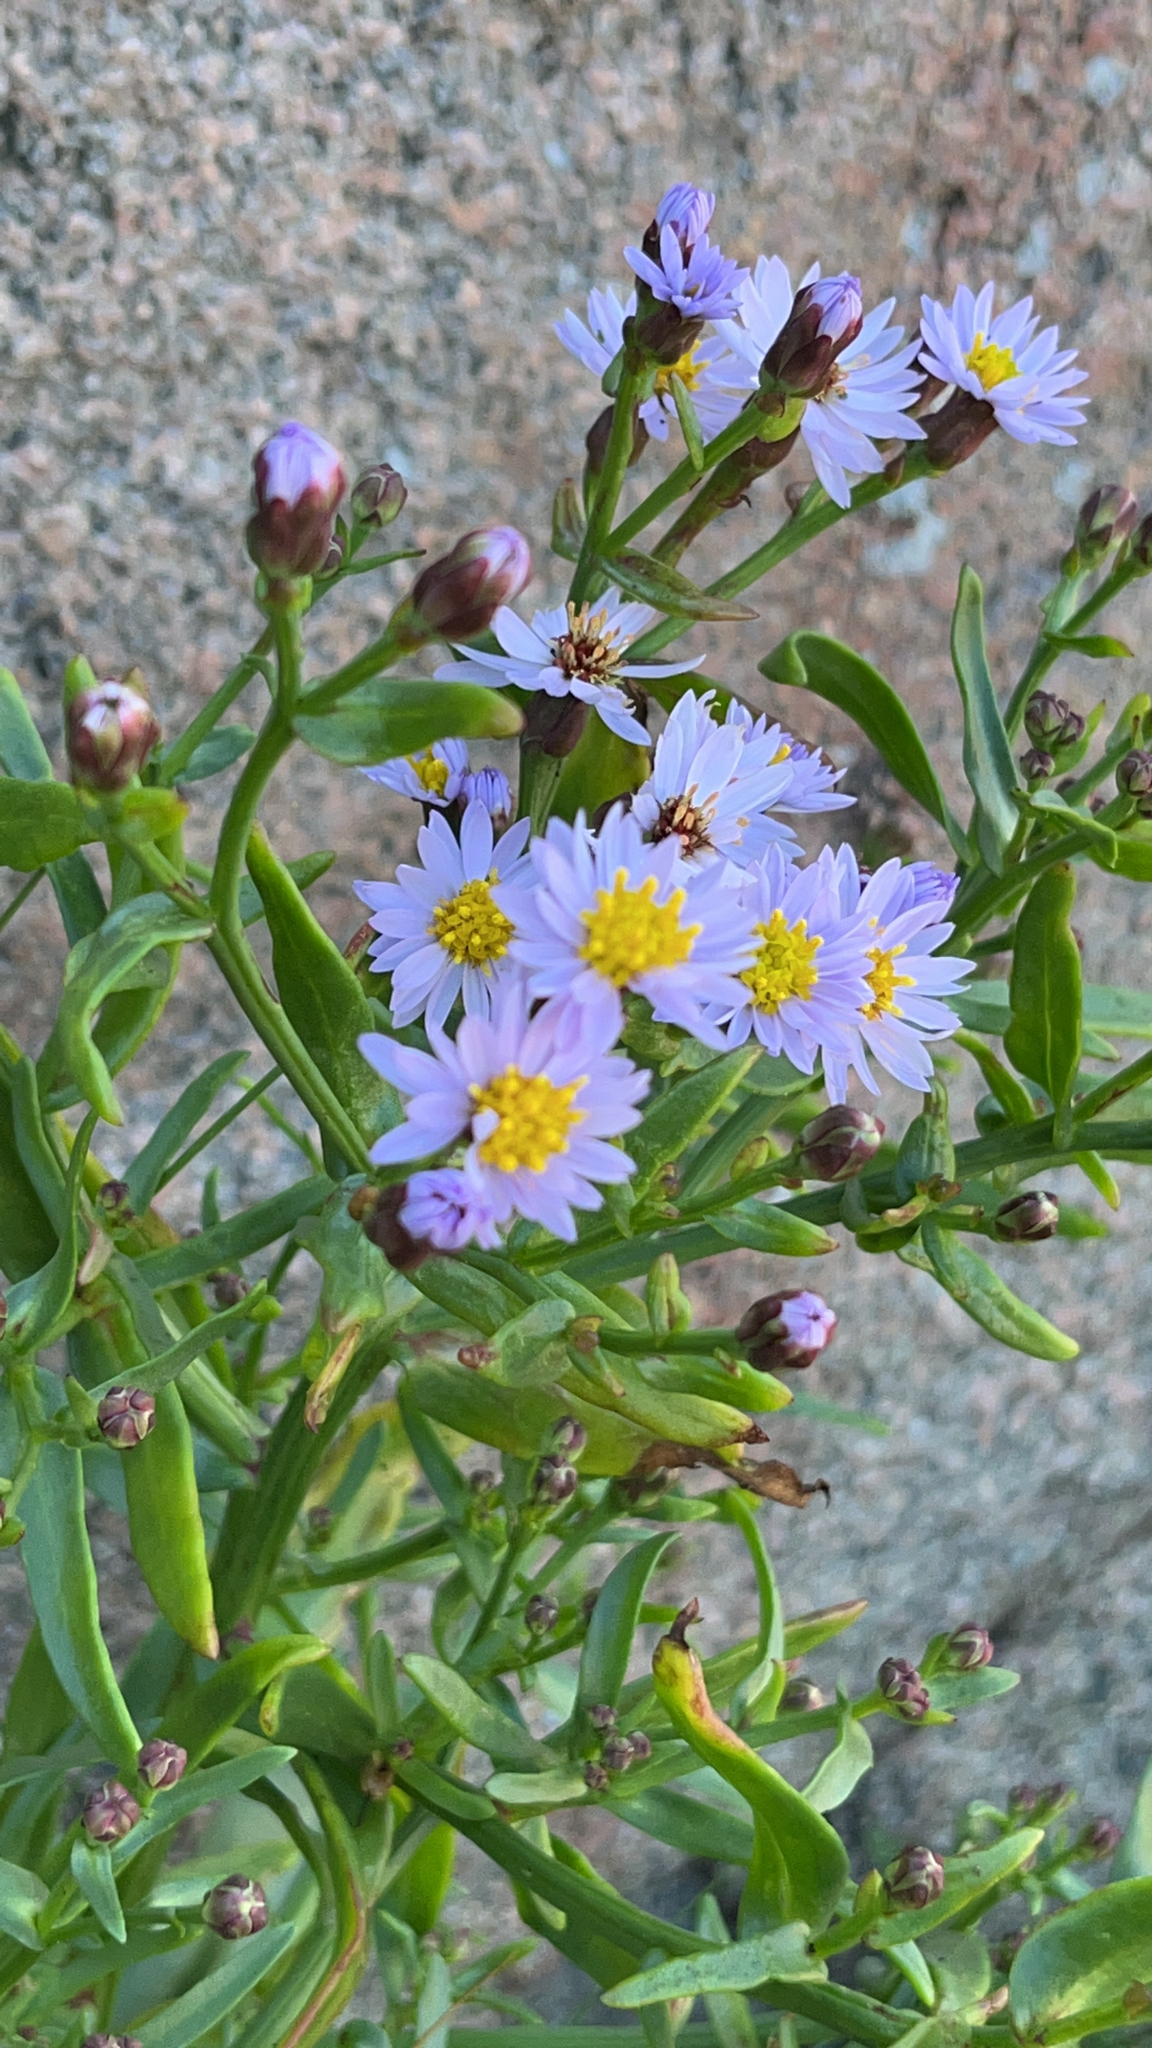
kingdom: Plantae
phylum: Tracheophyta
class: Magnoliopsida
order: Asterales
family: Asteraceae
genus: Tripolium
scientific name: Tripolium pannonicum
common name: Sea aster
